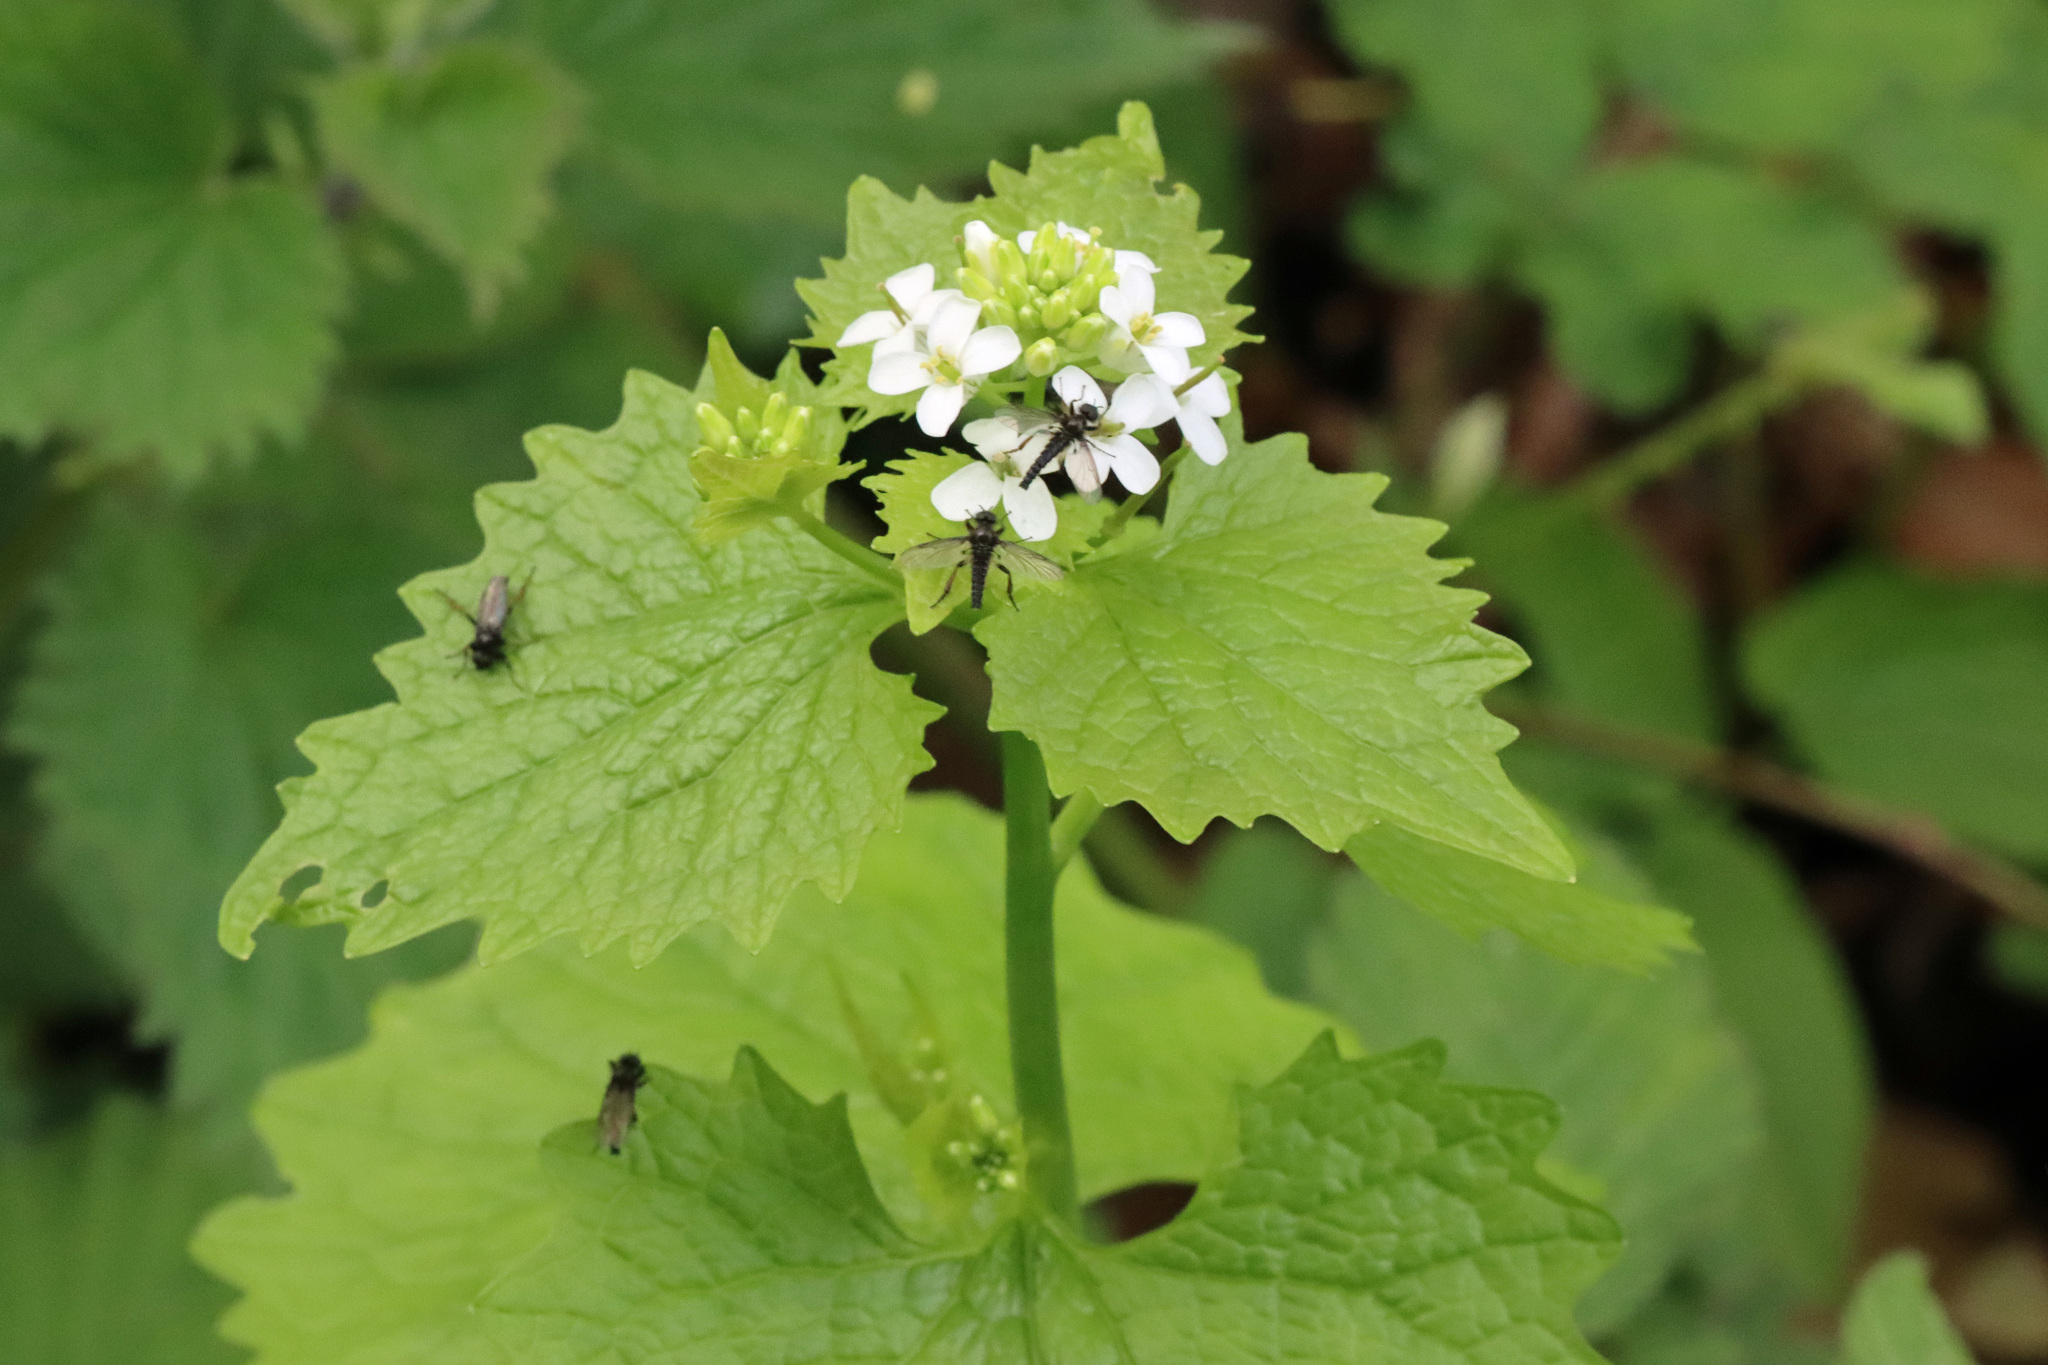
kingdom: Plantae
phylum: Tracheophyta
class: Magnoliopsida
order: Brassicales
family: Brassicaceae
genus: Alliaria
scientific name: Alliaria petiolata
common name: Garlic mustard
